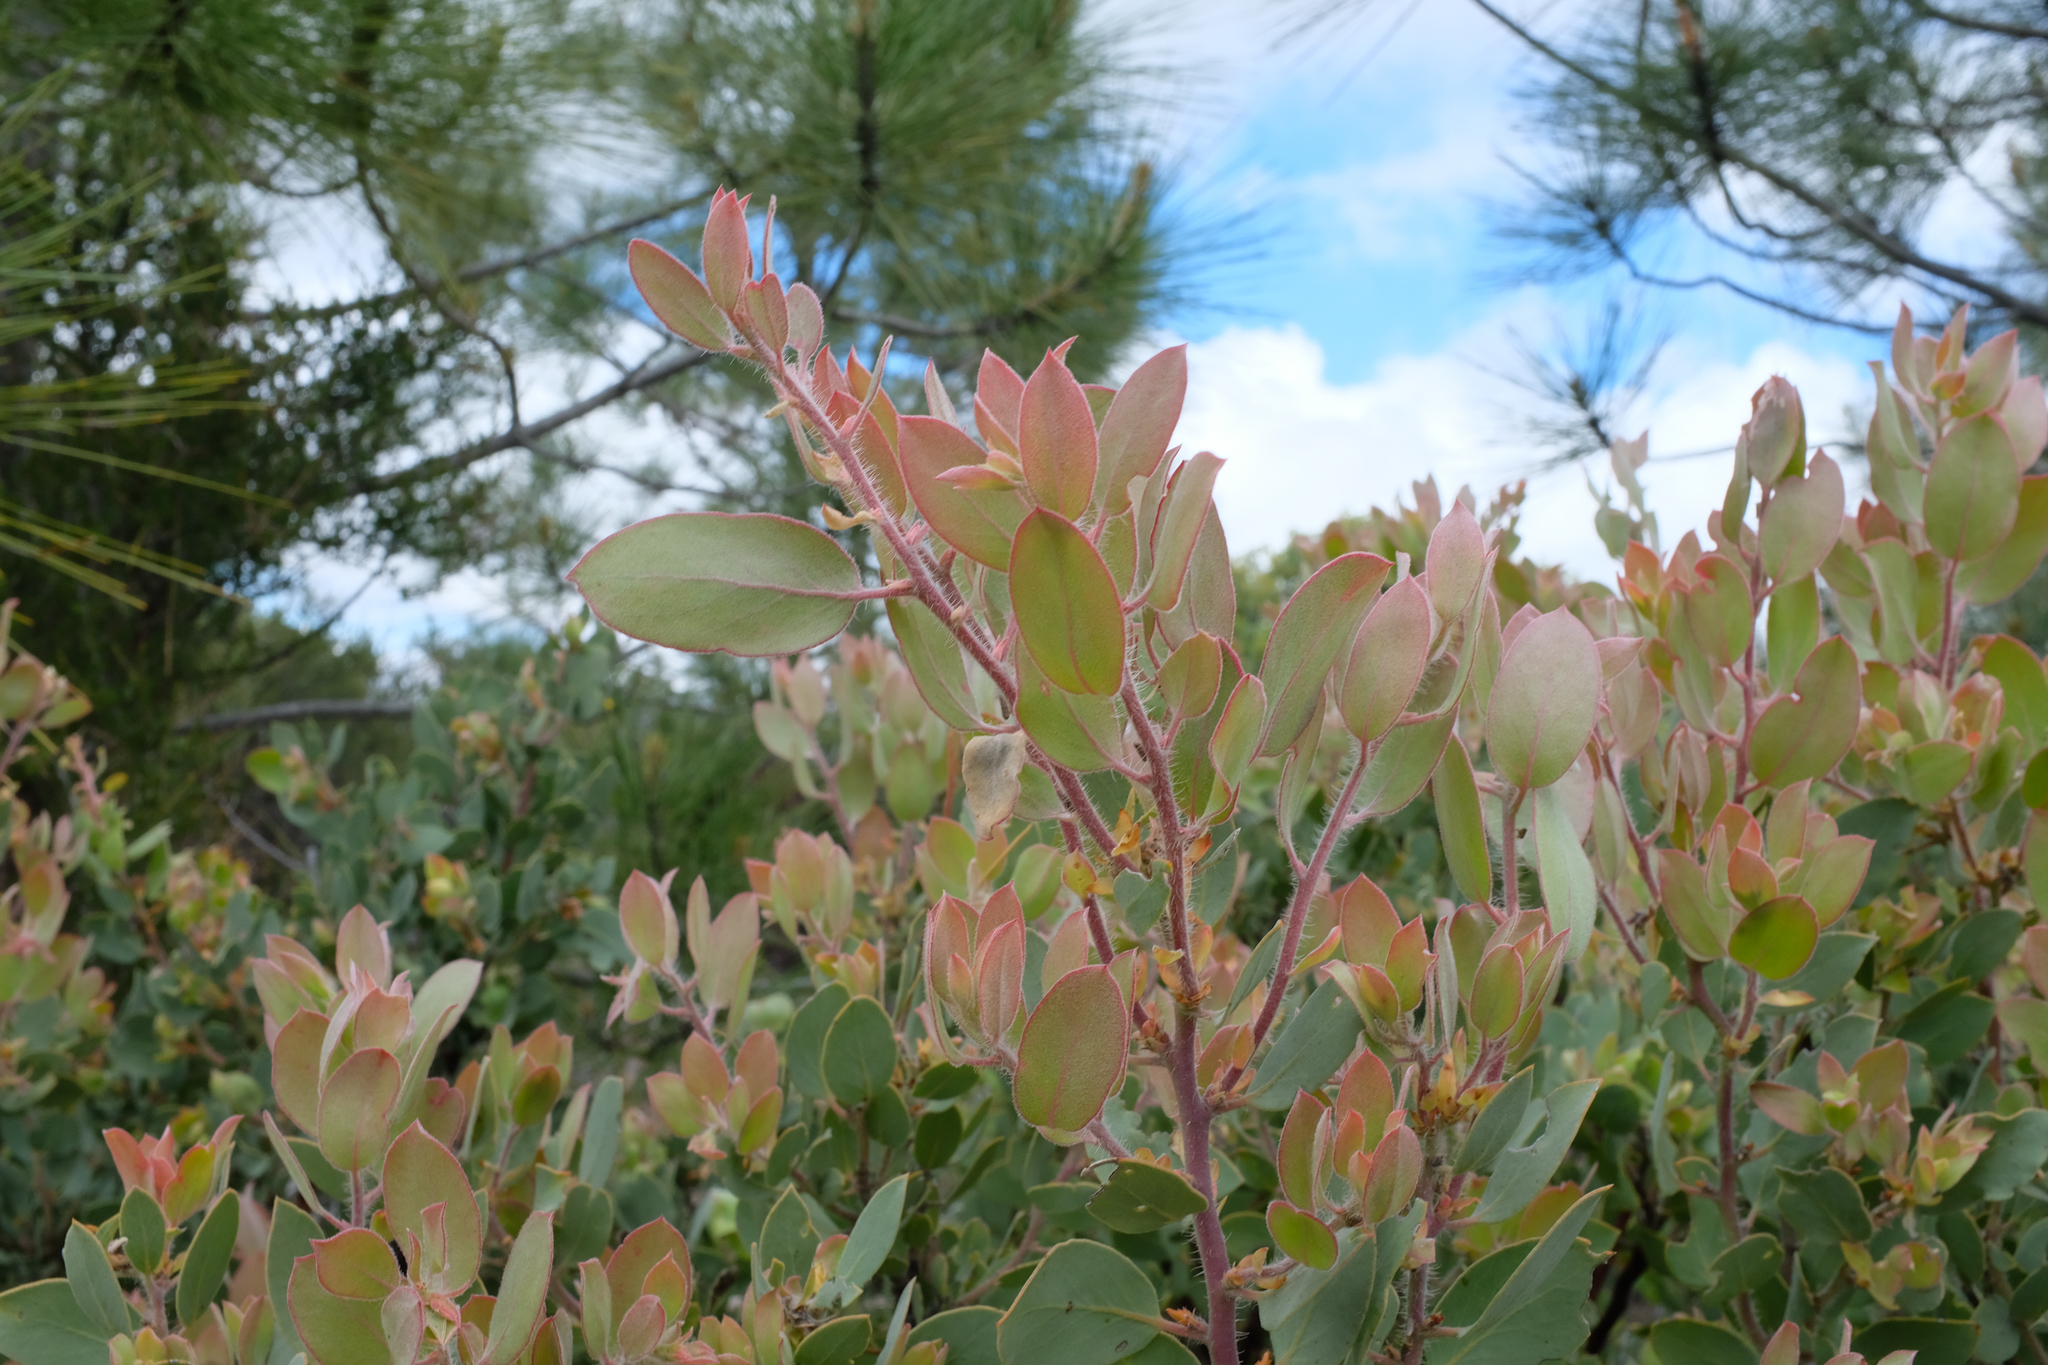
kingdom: Plantae
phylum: Tracheophyta
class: Magnoliopsida
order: Ericales
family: Ericaceae
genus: Arctostaphylos
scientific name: Arctostaphylos pilosula
